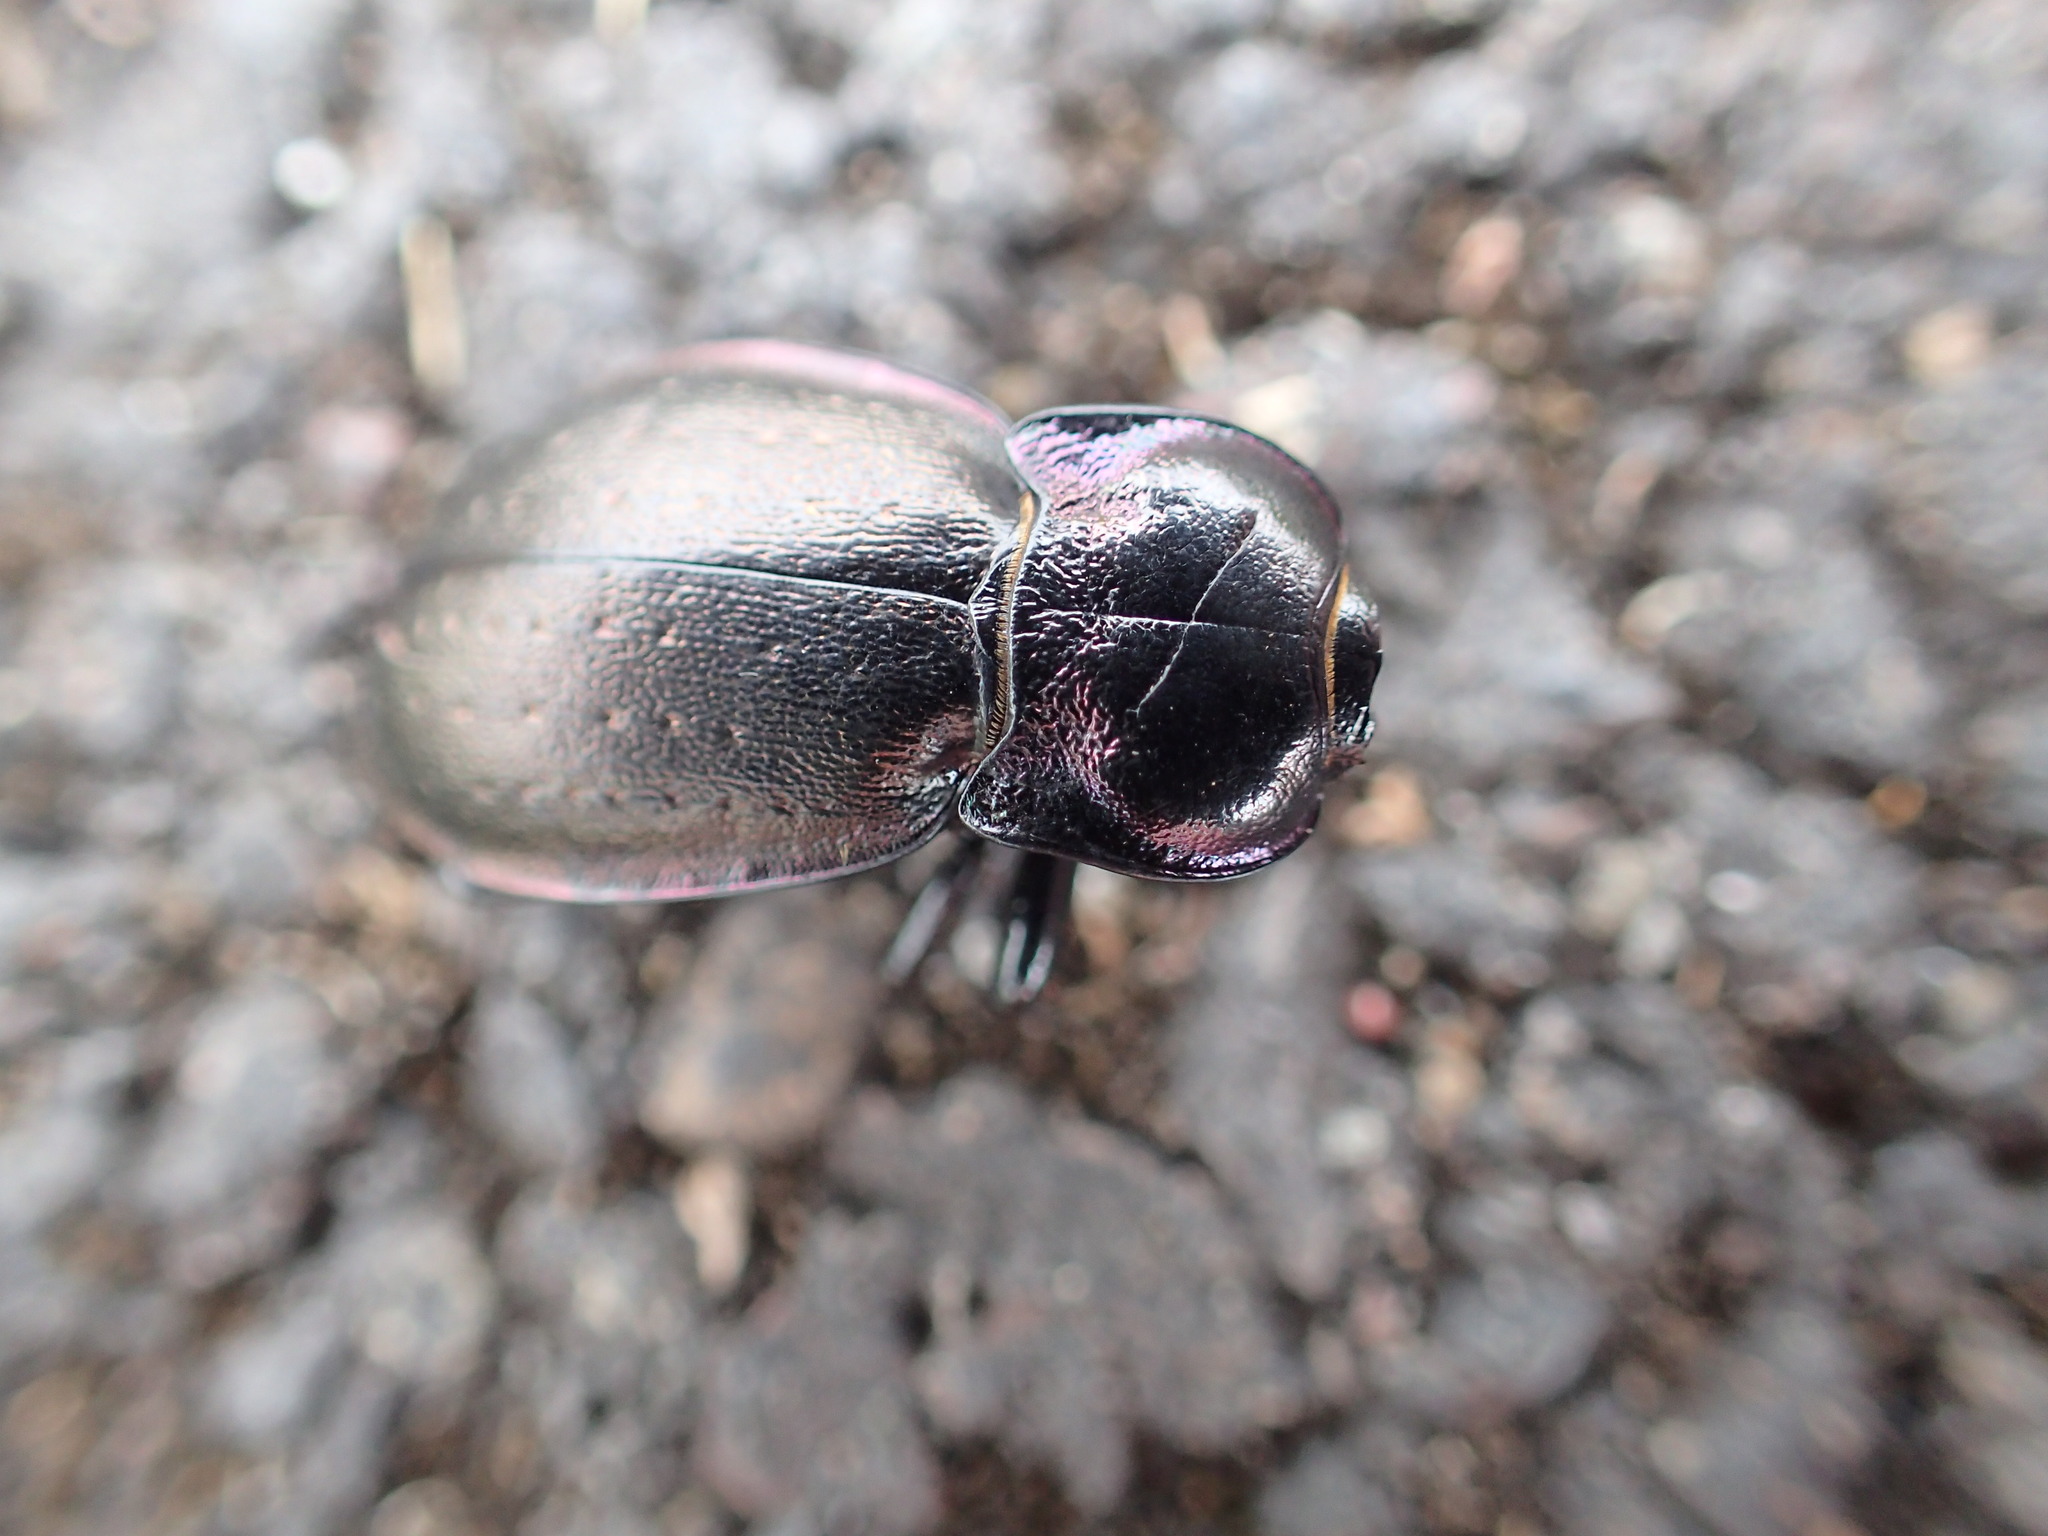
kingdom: Animalia
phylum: Arthropoda
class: Insecta
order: Coleoptera
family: Carabidae
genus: Carabus
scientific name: Carabus nemoralis
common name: European ground beetle
